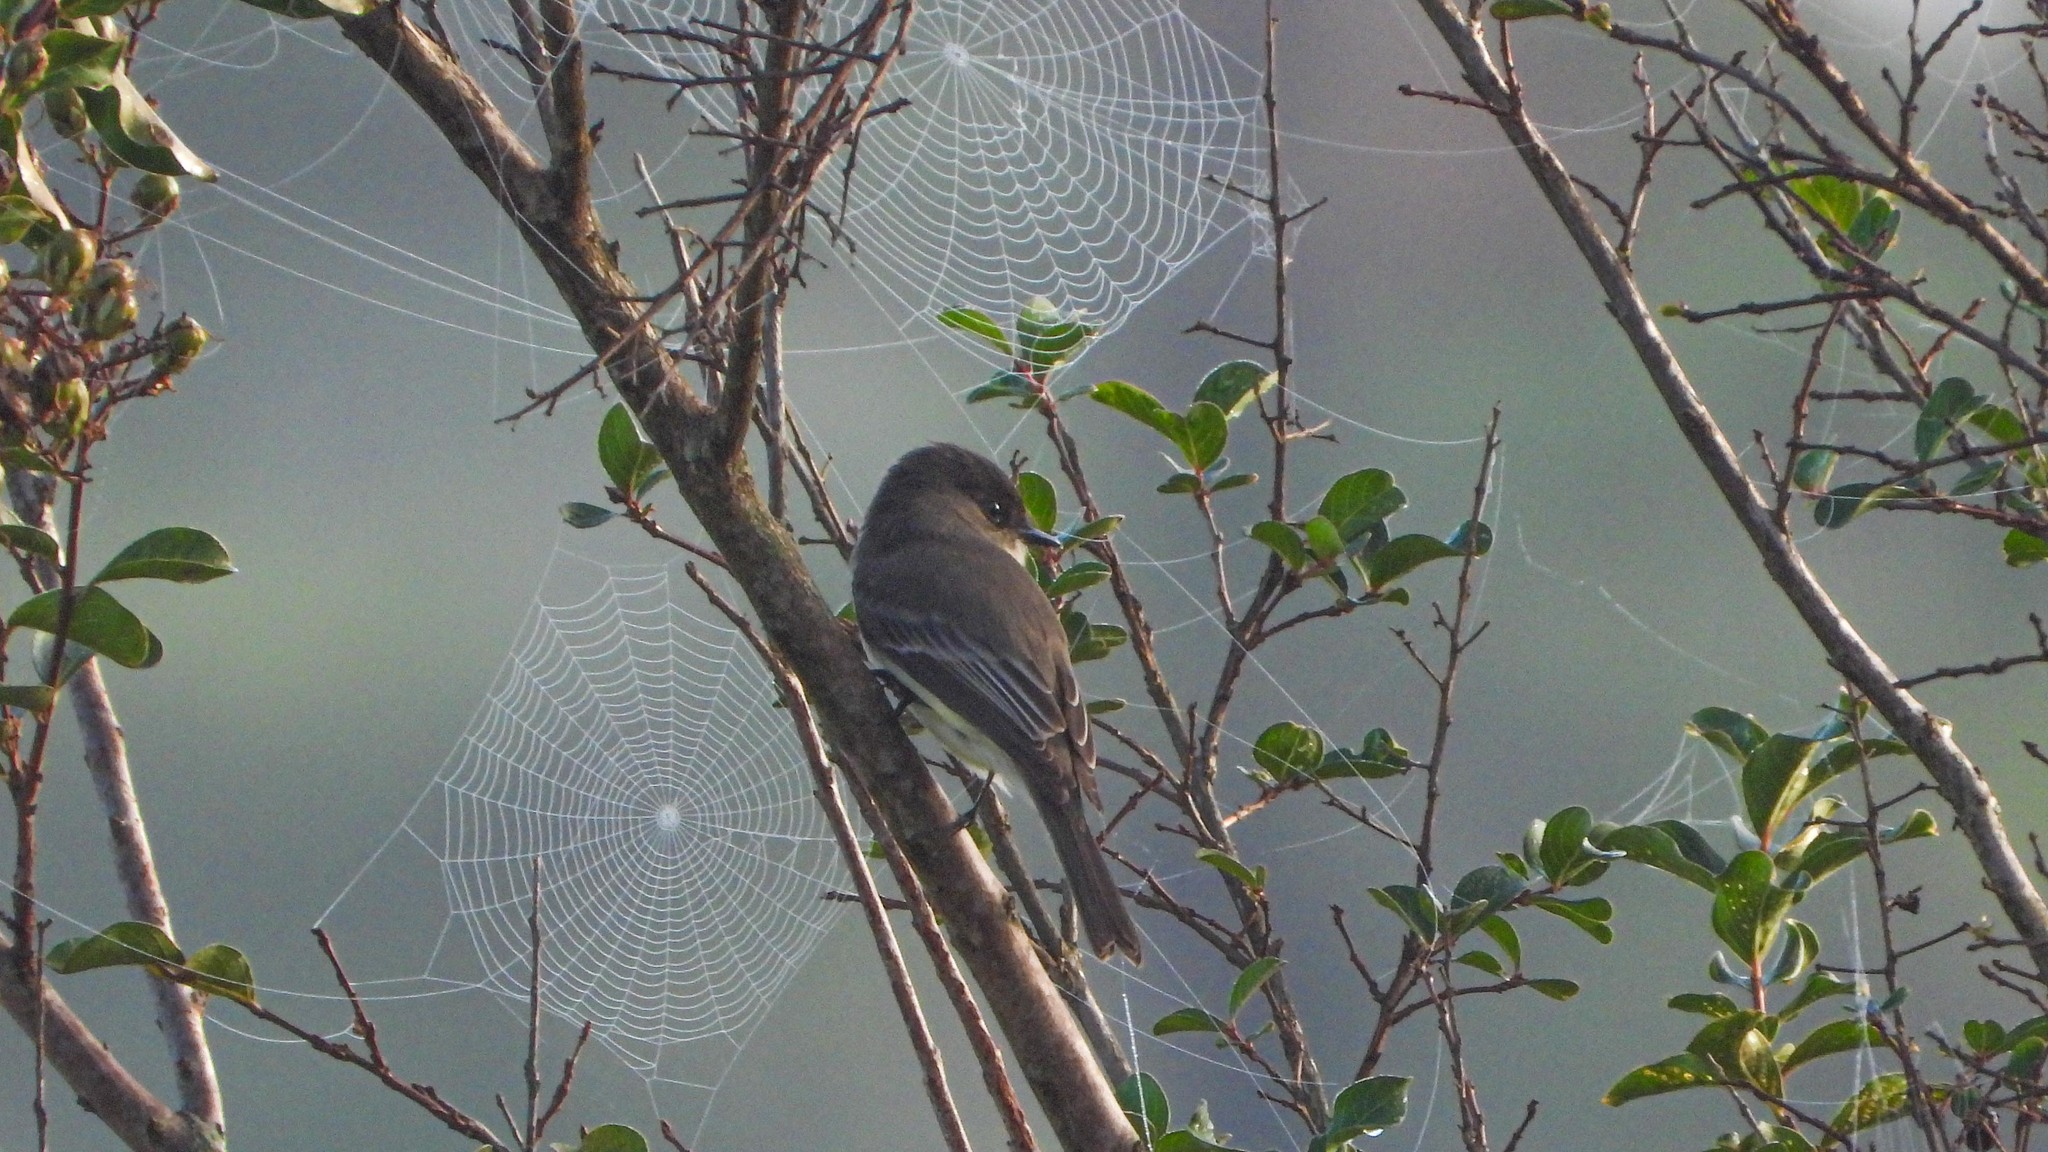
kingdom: Animalia
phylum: Chordata
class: Aves
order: Passeriformes
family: Tyrannidae
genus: Sayornis
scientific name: Sayornis phoebe
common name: Eastern phoebe
